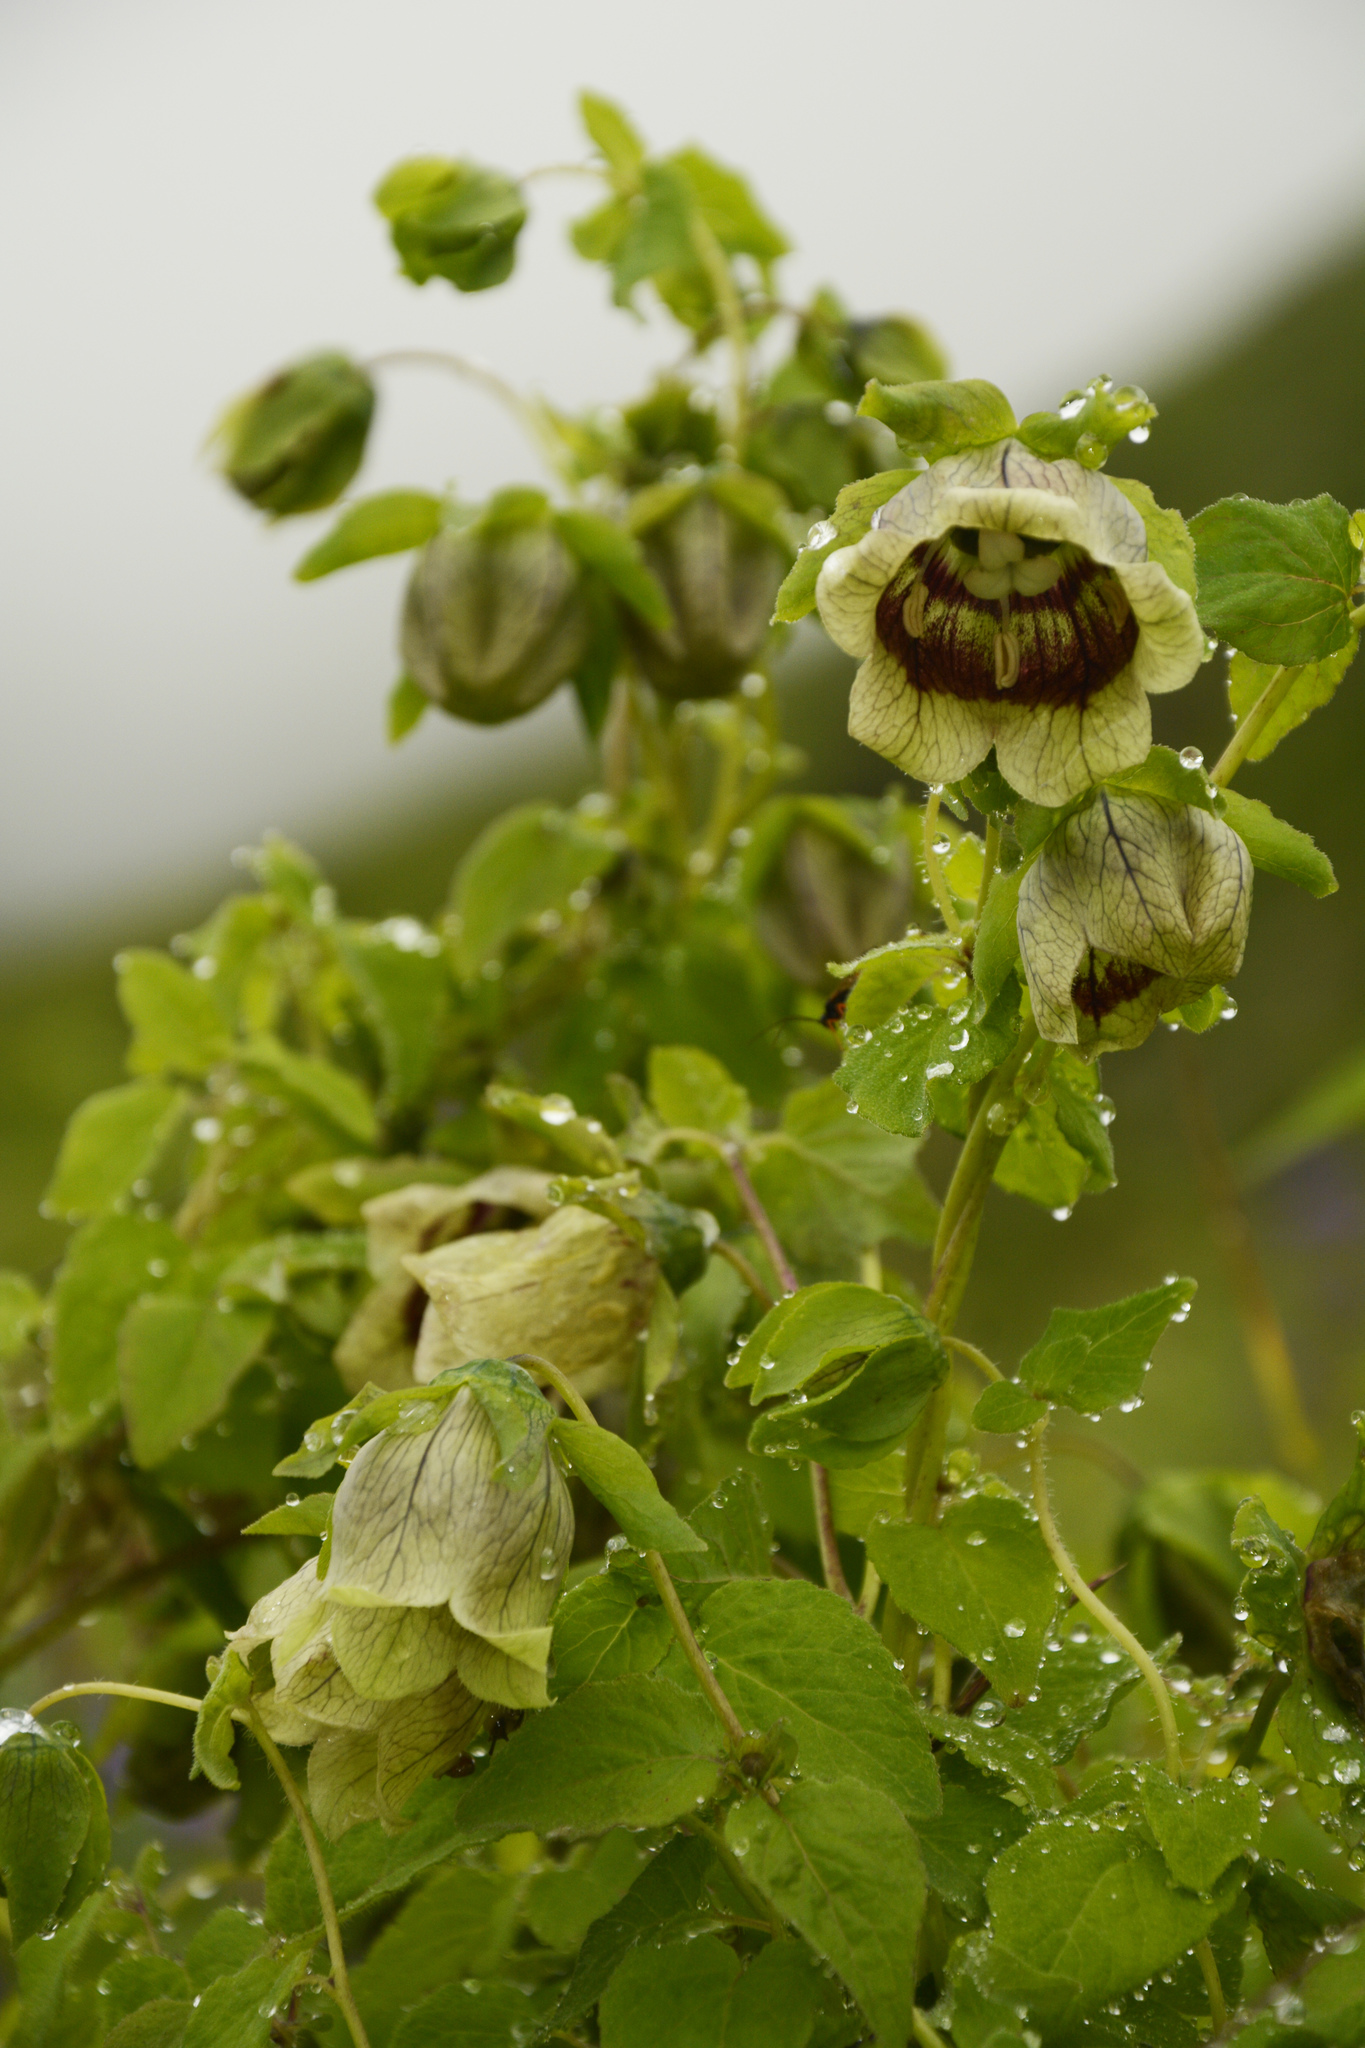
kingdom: Plantae
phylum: Tracheophyta
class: Magnoliopsida
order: Asterales
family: Campanulaceae
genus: Codonopsis
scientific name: Codonopsis rotundifolia
